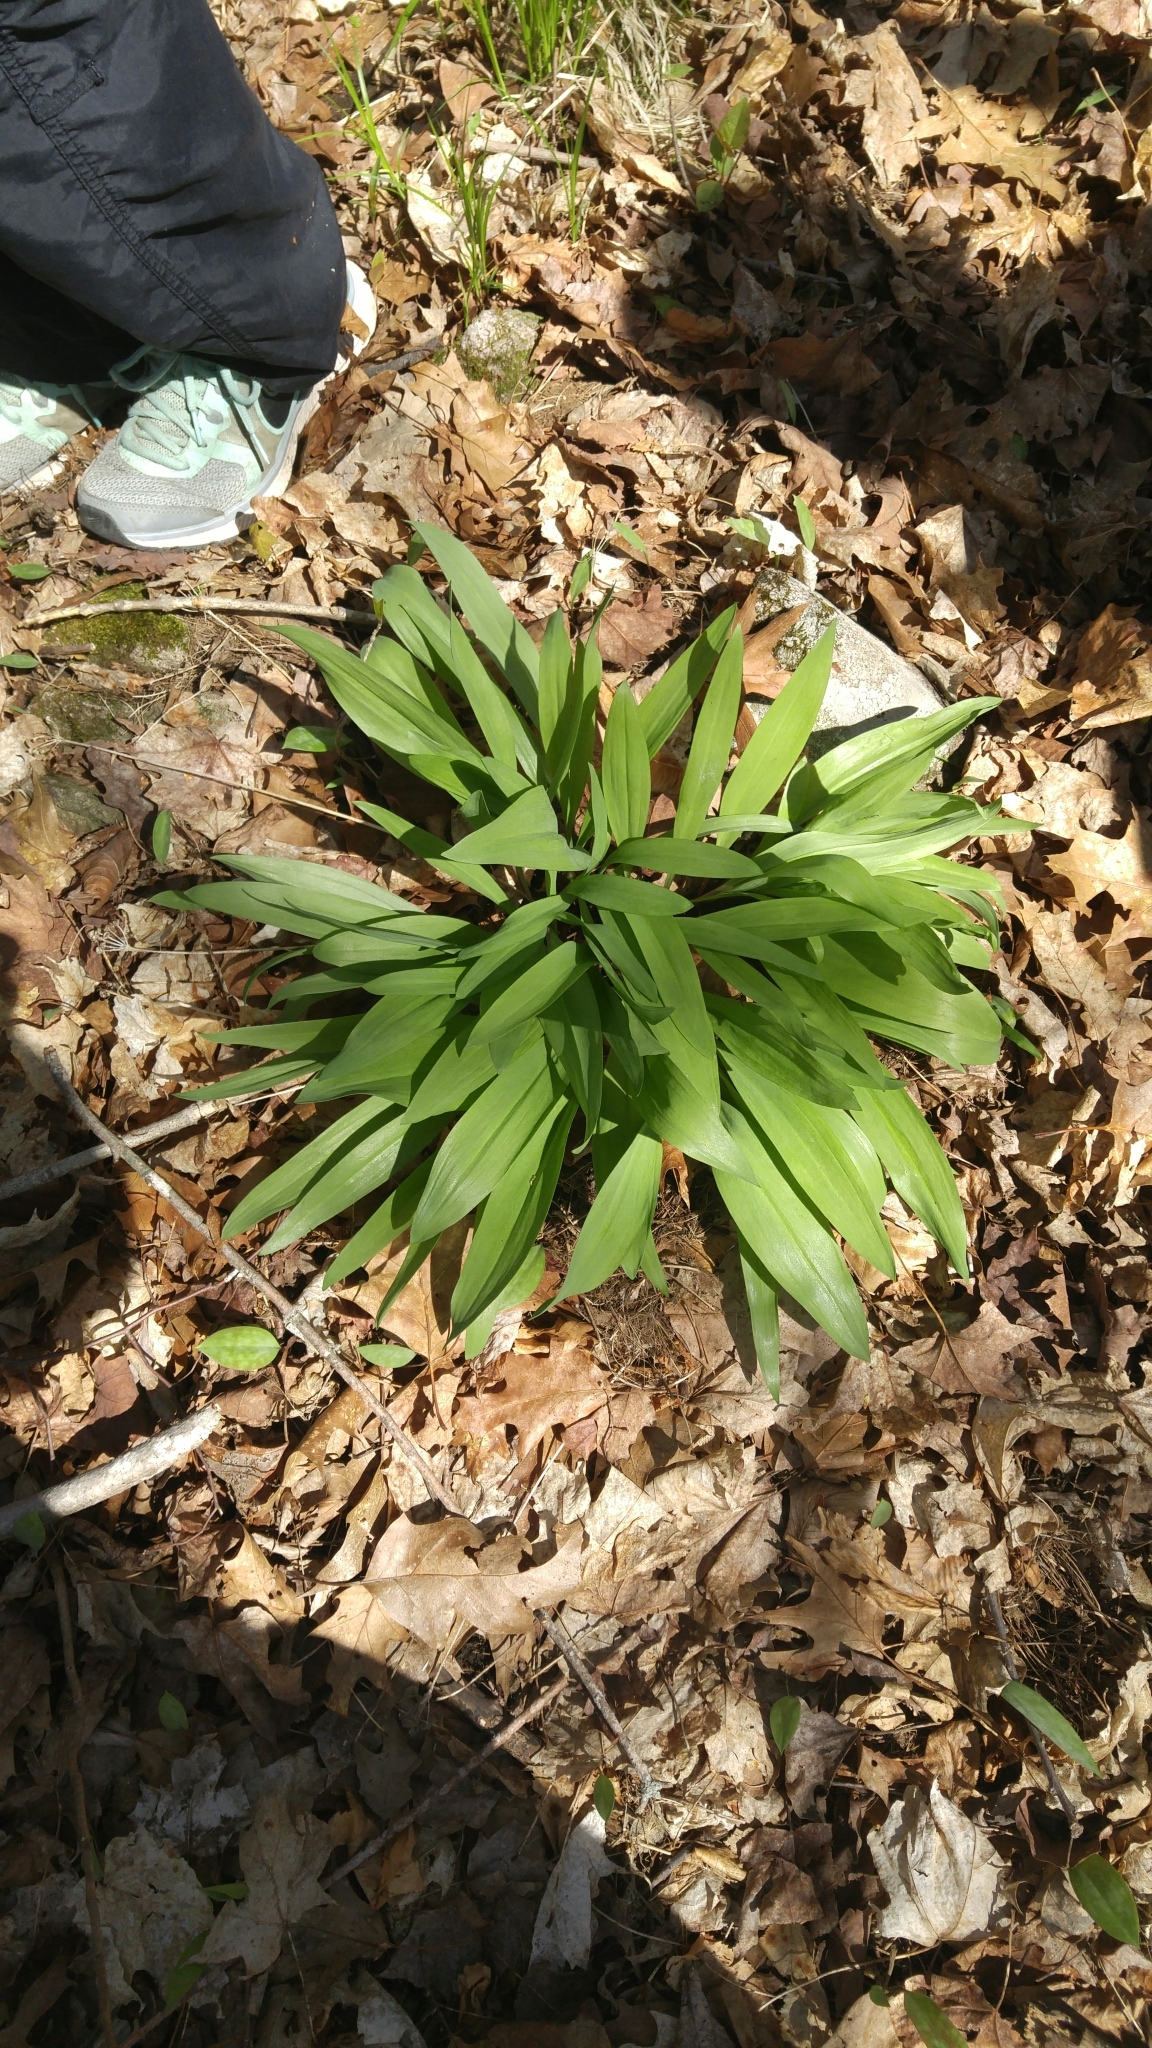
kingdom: Plantae
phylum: Tracheophyta
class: Liliopsida
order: Asparagales
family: Amaryllidaceae
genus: Allium
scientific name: Allium tricoccum
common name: Ramp
